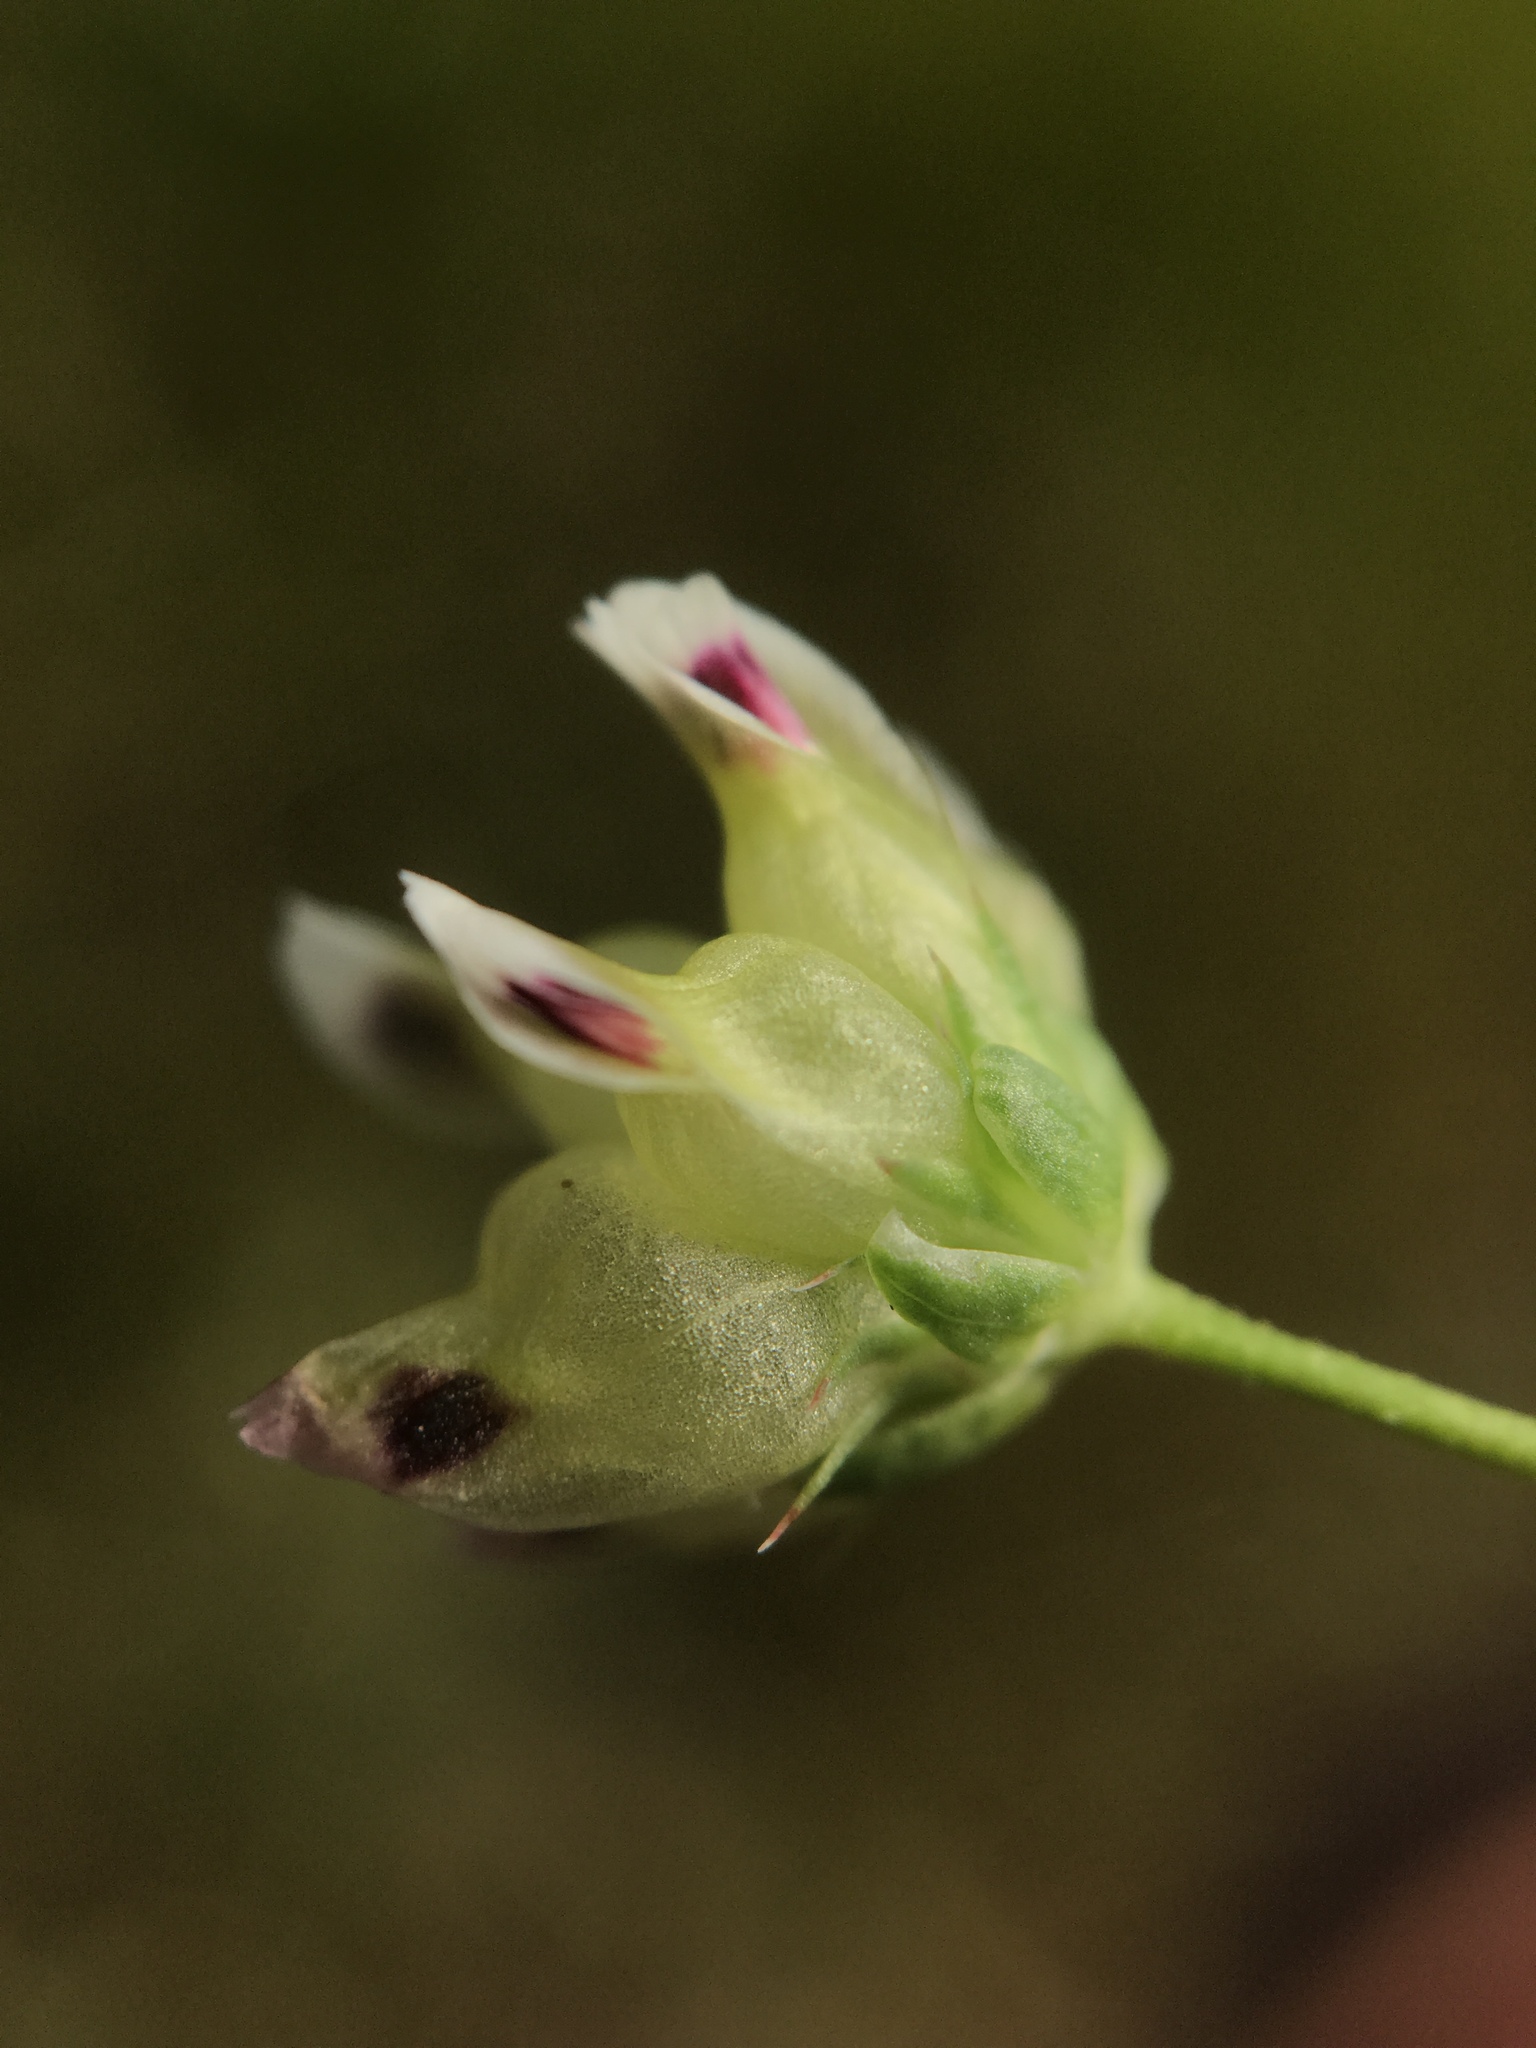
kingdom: Plantae
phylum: Tracheophyta
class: Magnoliopsida
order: Fabales
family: Fabaceae
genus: Trifolium
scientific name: Trifolium depauperatum
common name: Poverty clover
